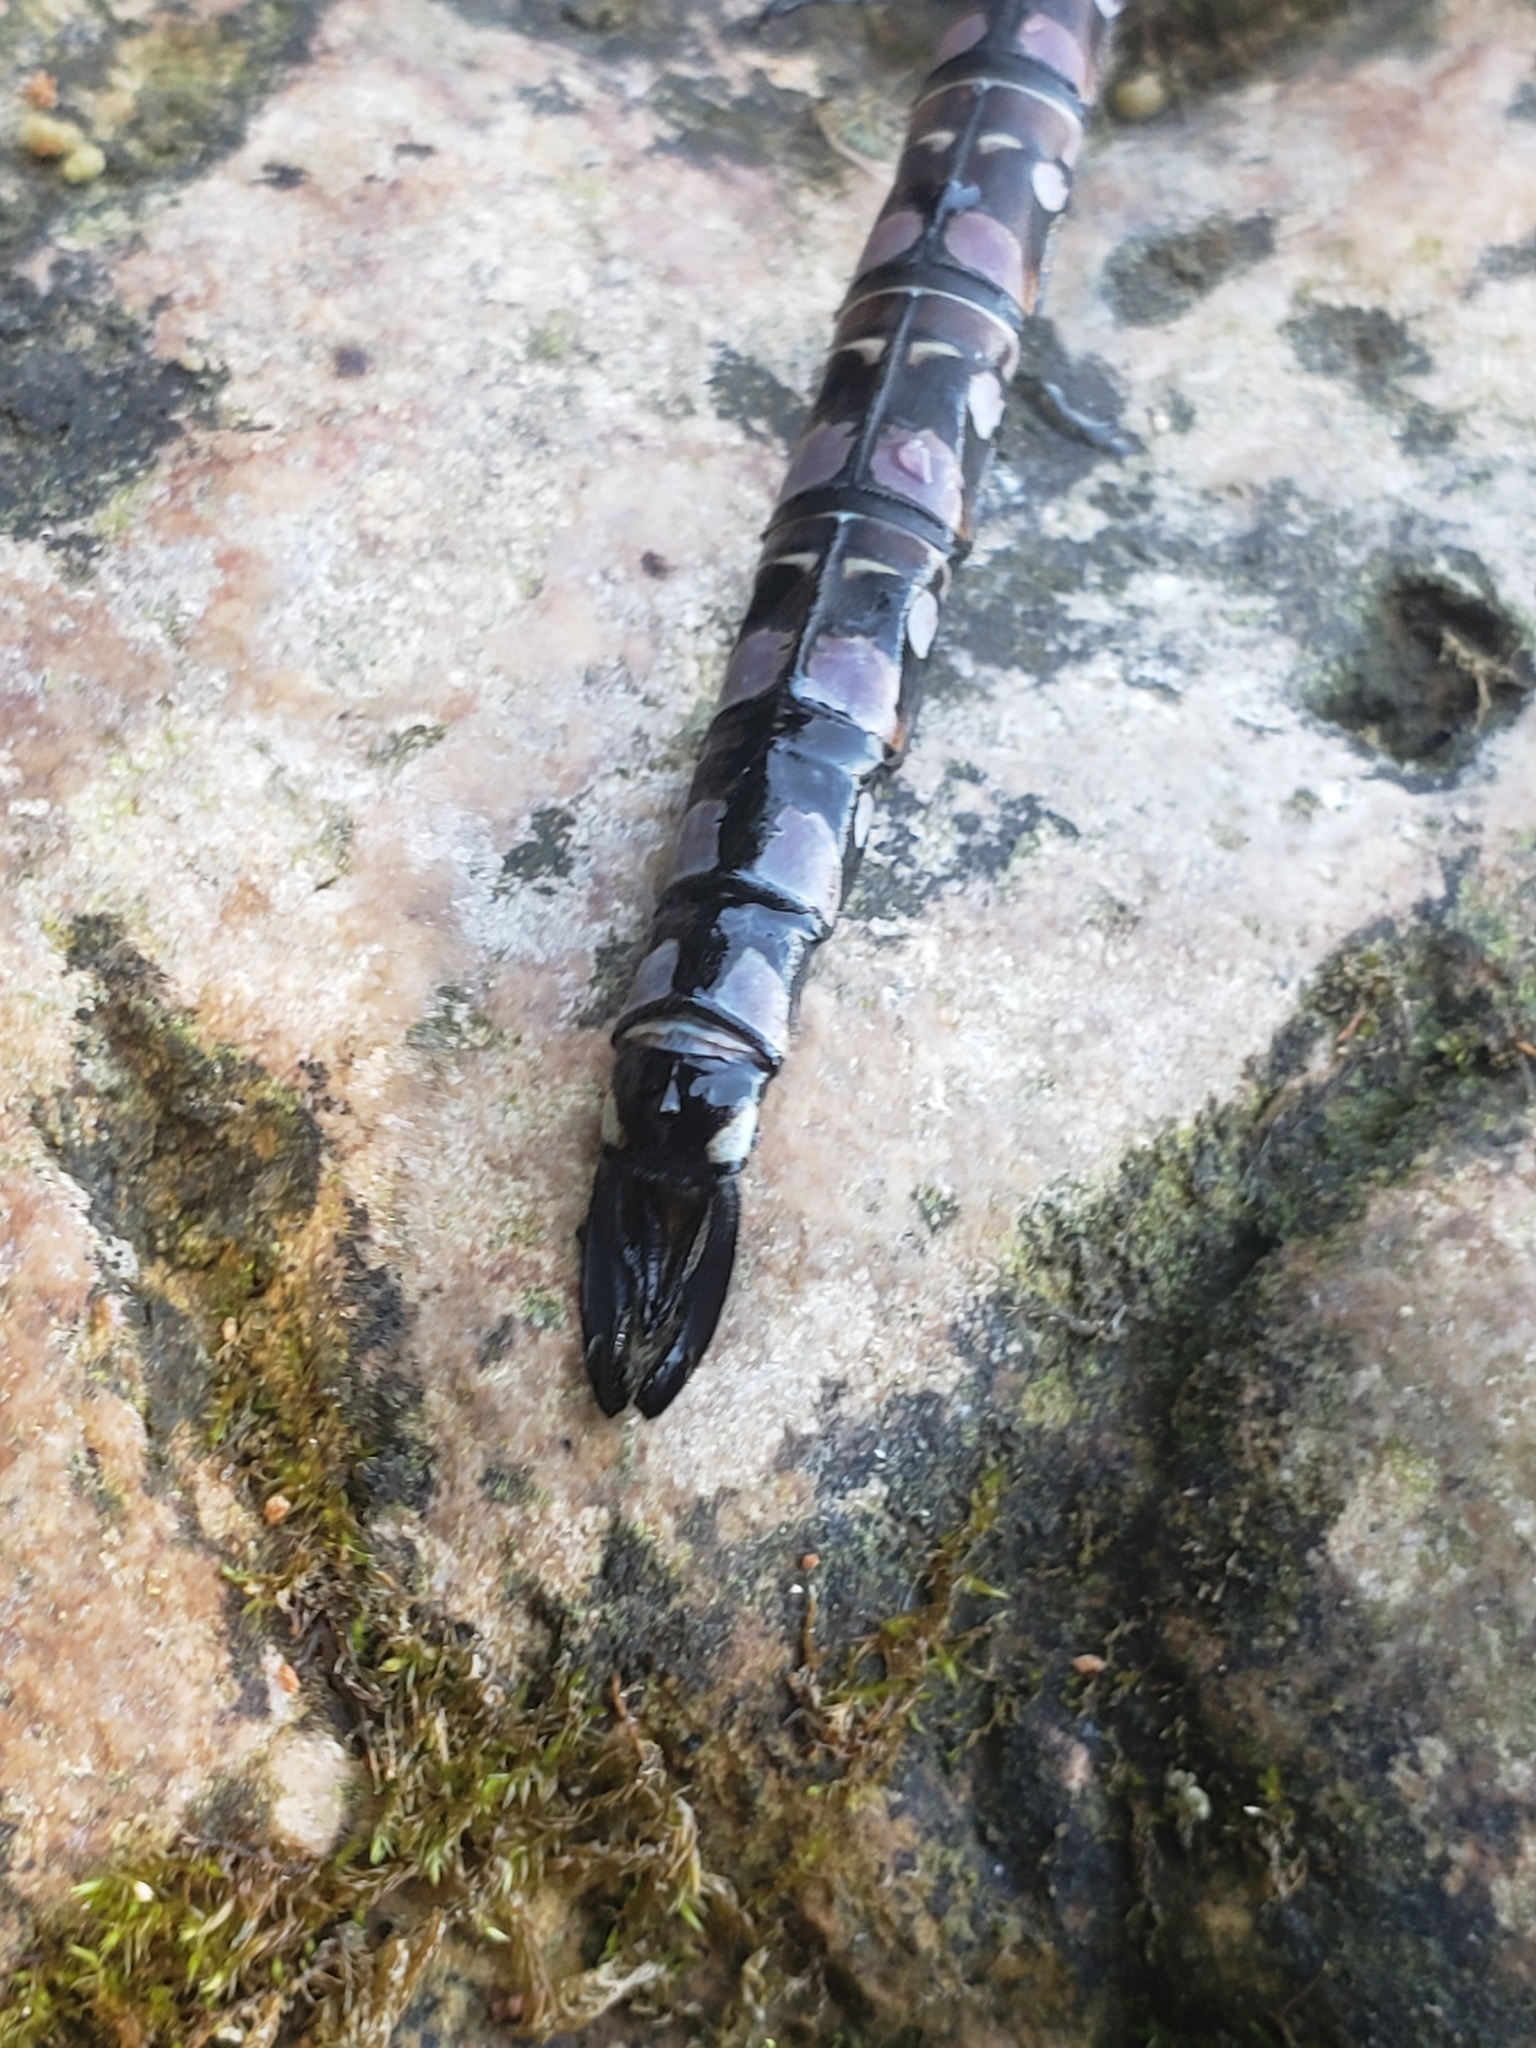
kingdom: Animalia
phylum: Arthropoda
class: Insecta
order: Odonata
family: Aeshnidae
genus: Aeshna
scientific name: Aeshna interrupta
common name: Variable darner
